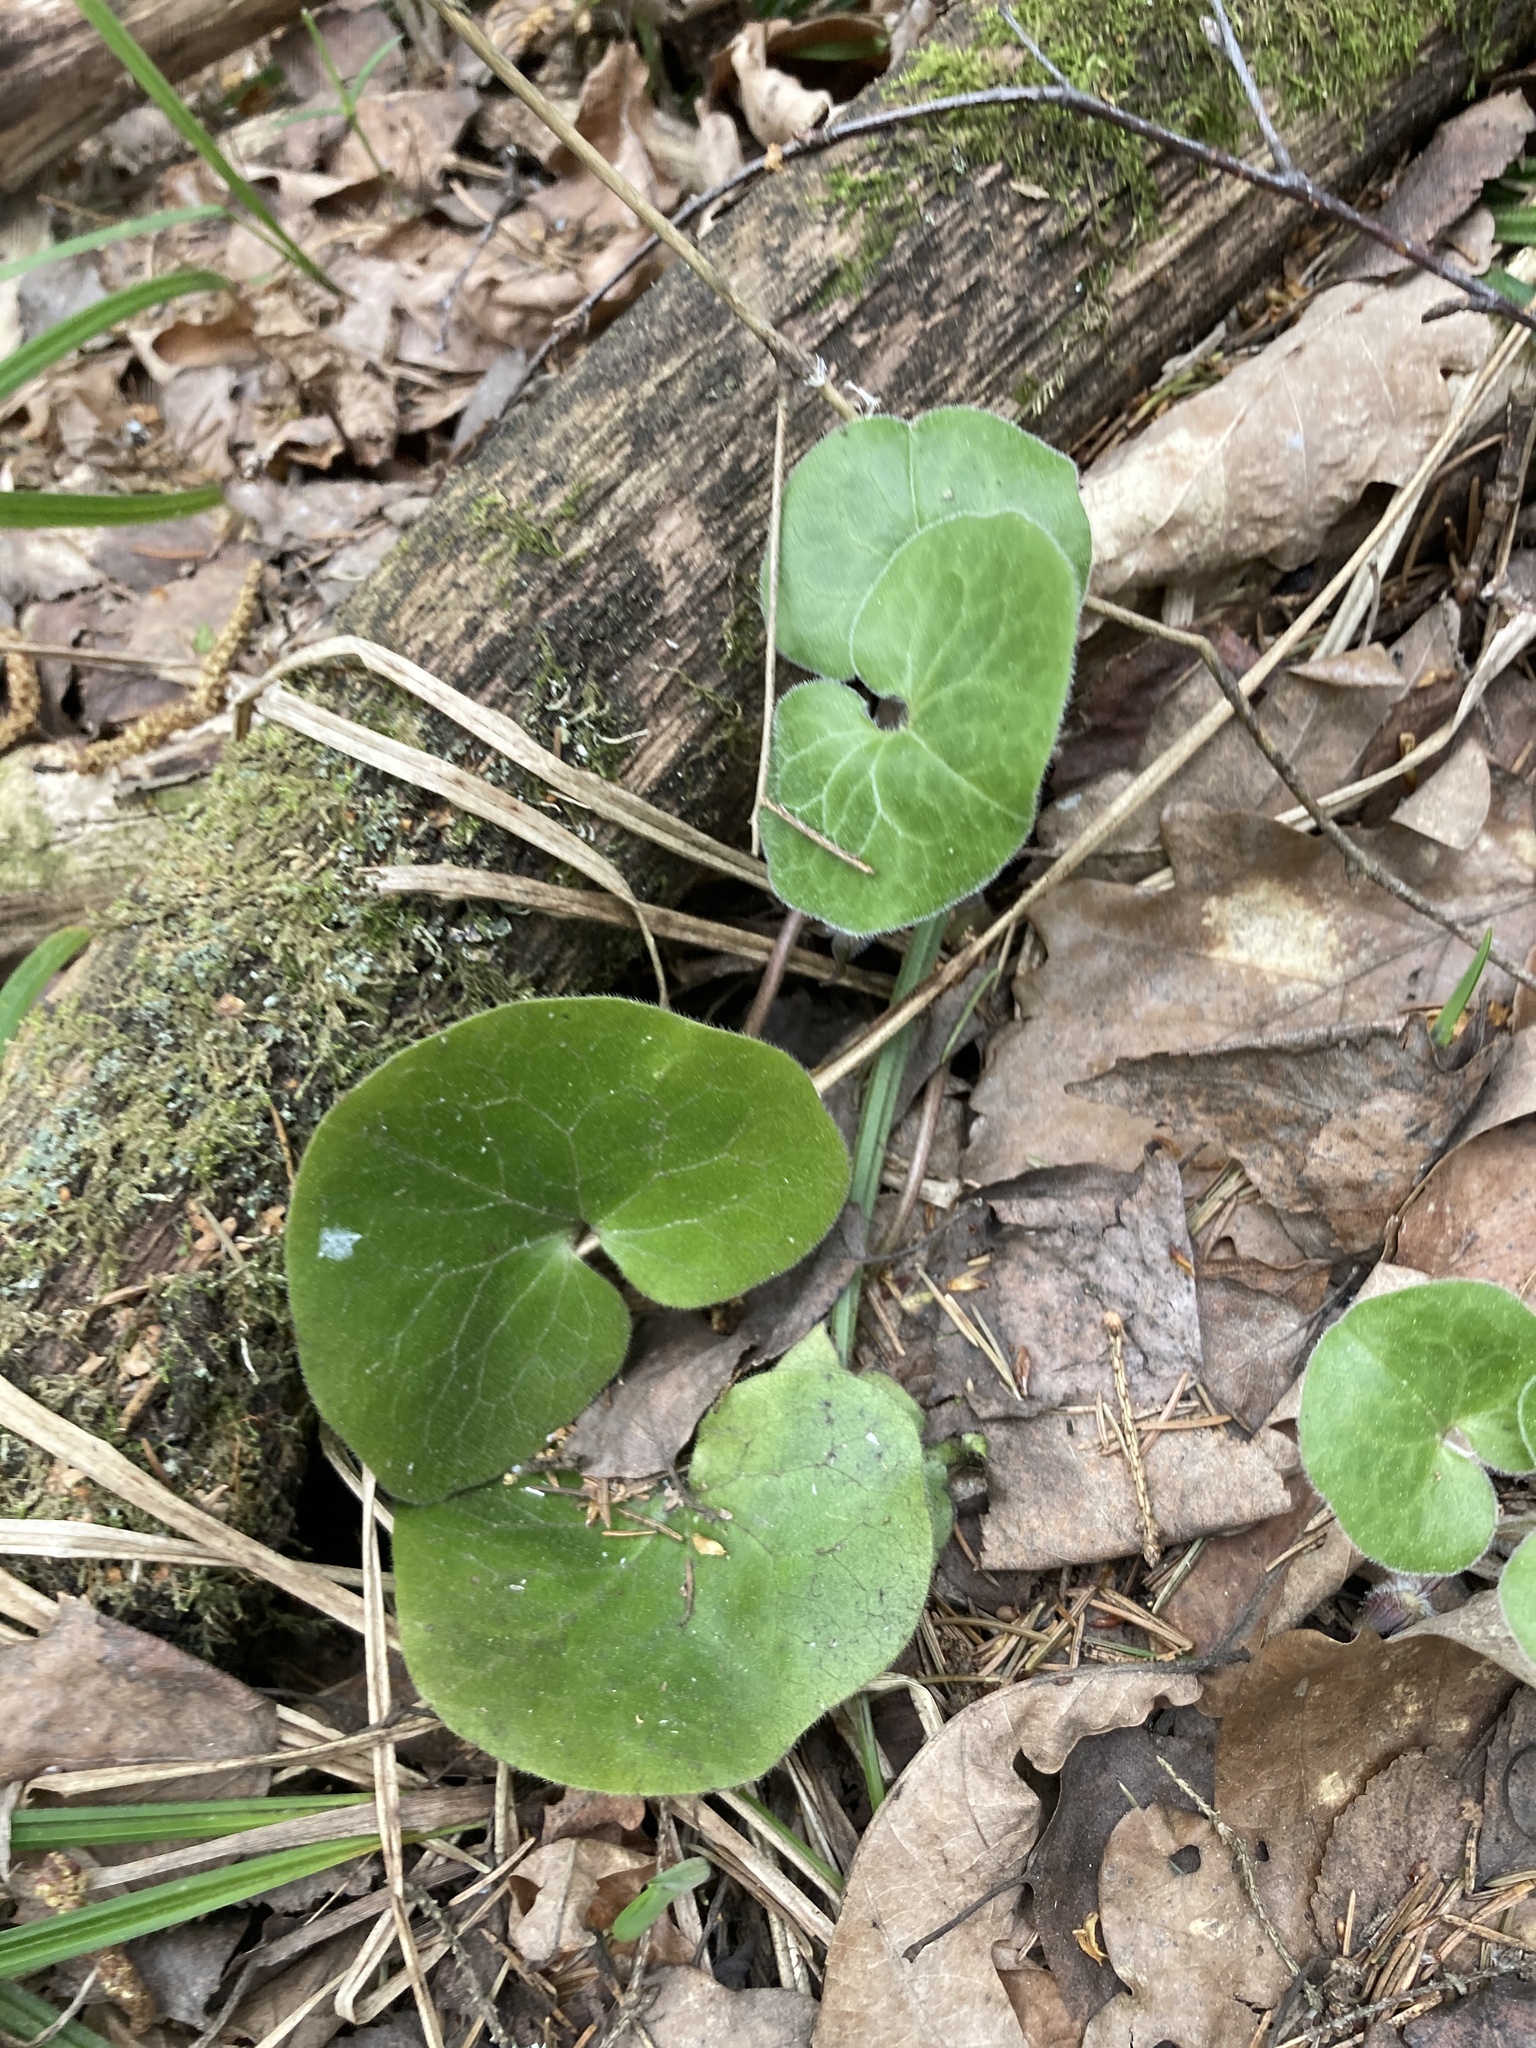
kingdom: Plantae
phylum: Tracheophyta
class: Magnoliopsida
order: Piperales
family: Aristolochiaceae
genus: Asarum
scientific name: Asarum europaeum
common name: Asarabacca
